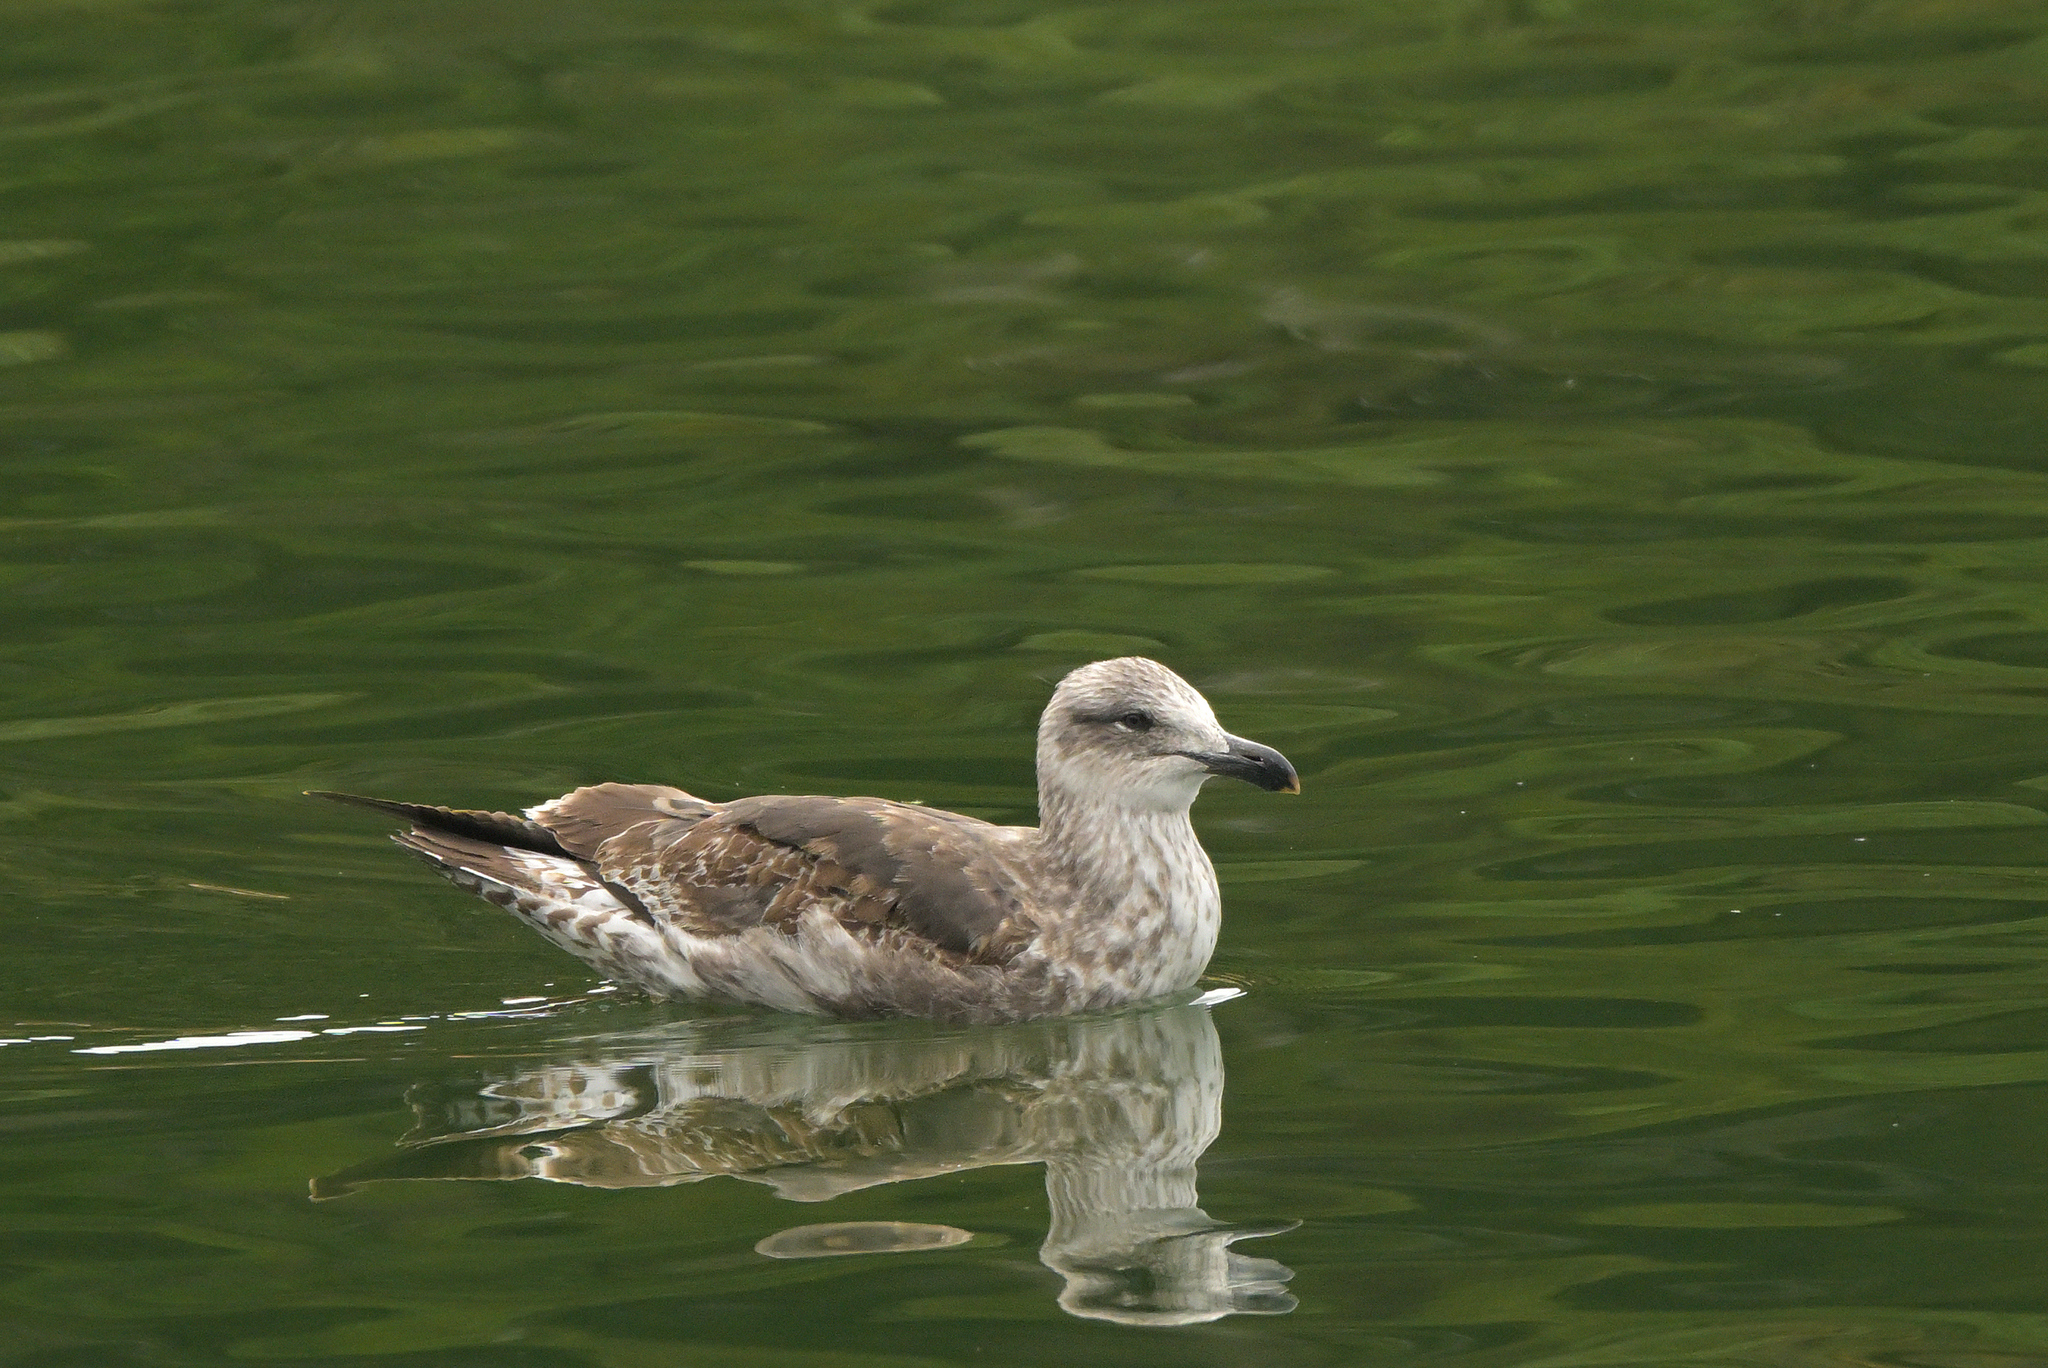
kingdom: Animalia
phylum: Chordata
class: Aves
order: Charadriiformes
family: Laridae
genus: Larus
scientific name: Larus dominicanus
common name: Kelp gull
